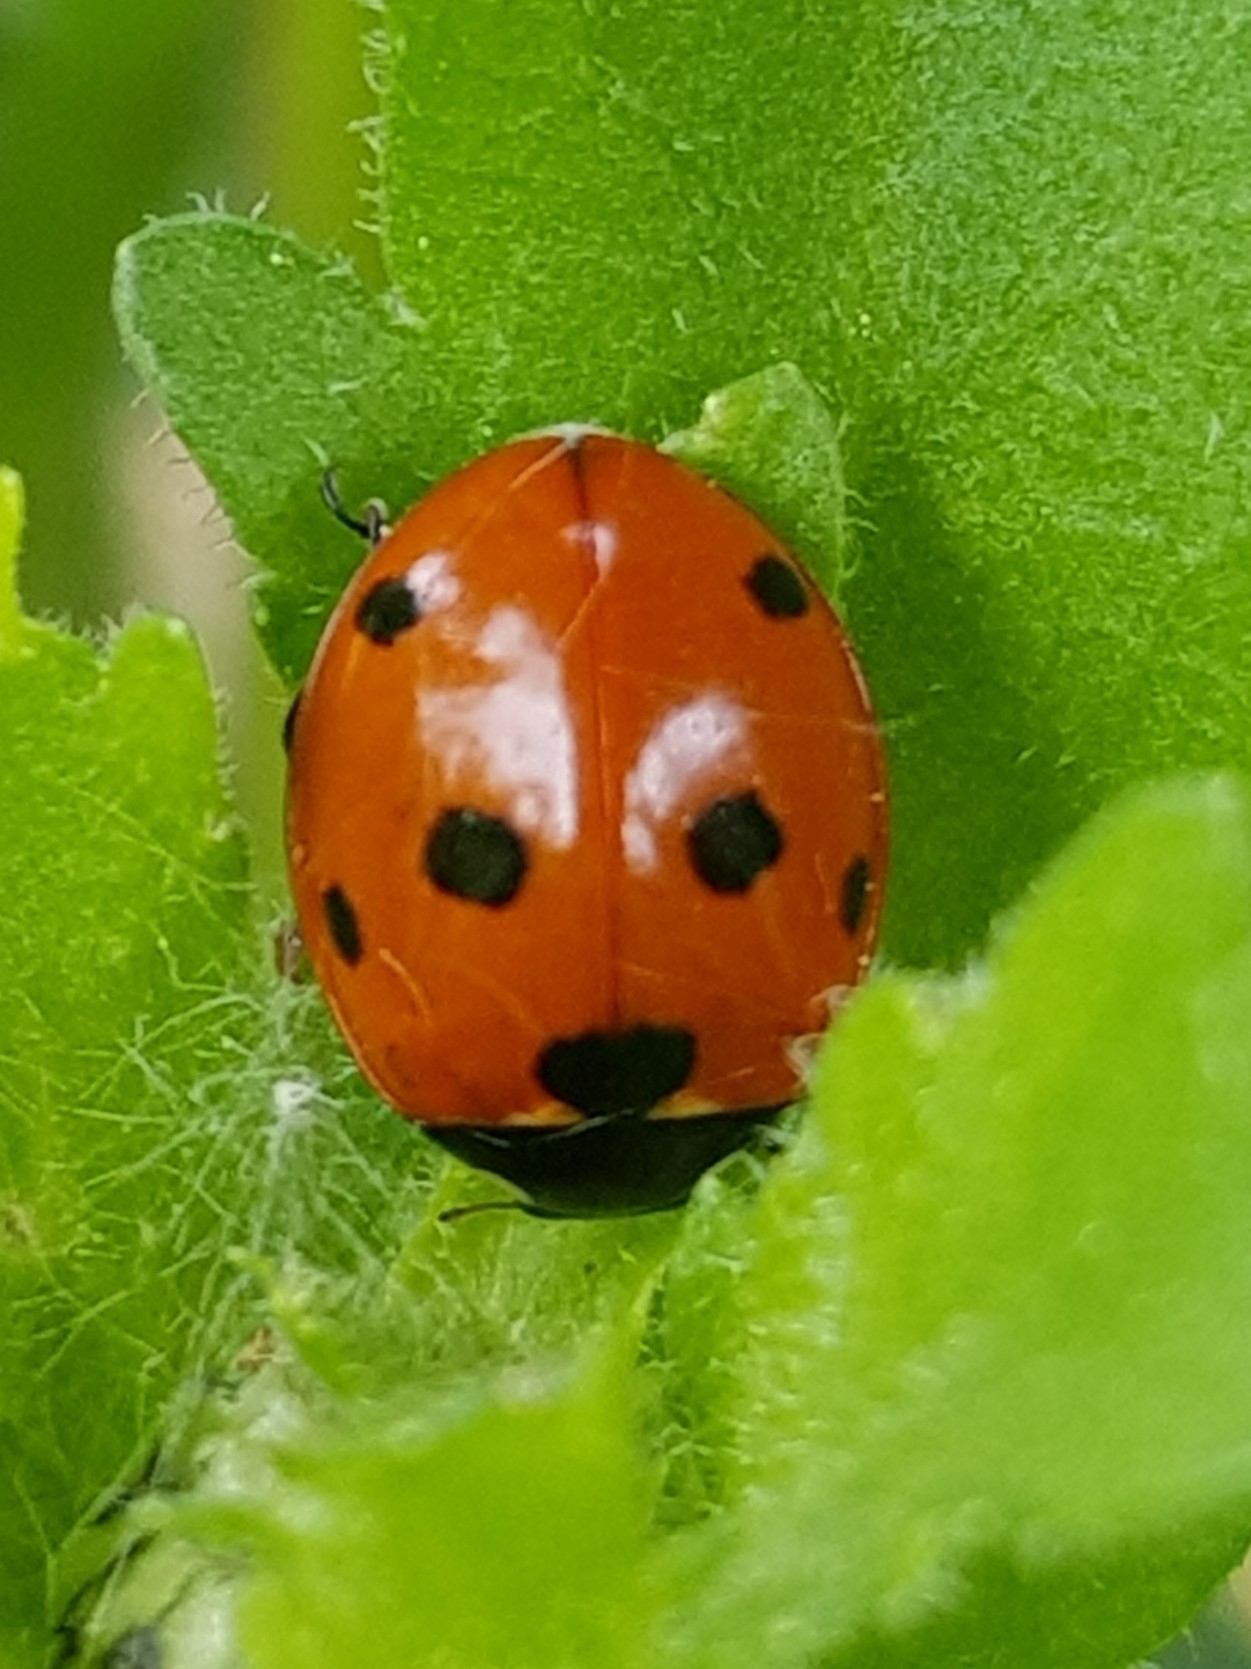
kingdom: Animalia
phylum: Arthropoda
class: Insecta
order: Coleoptera
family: Coccinellidae
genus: Coccinella
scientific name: Coccinella septempunctata
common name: Sevenspotted lady beetle
